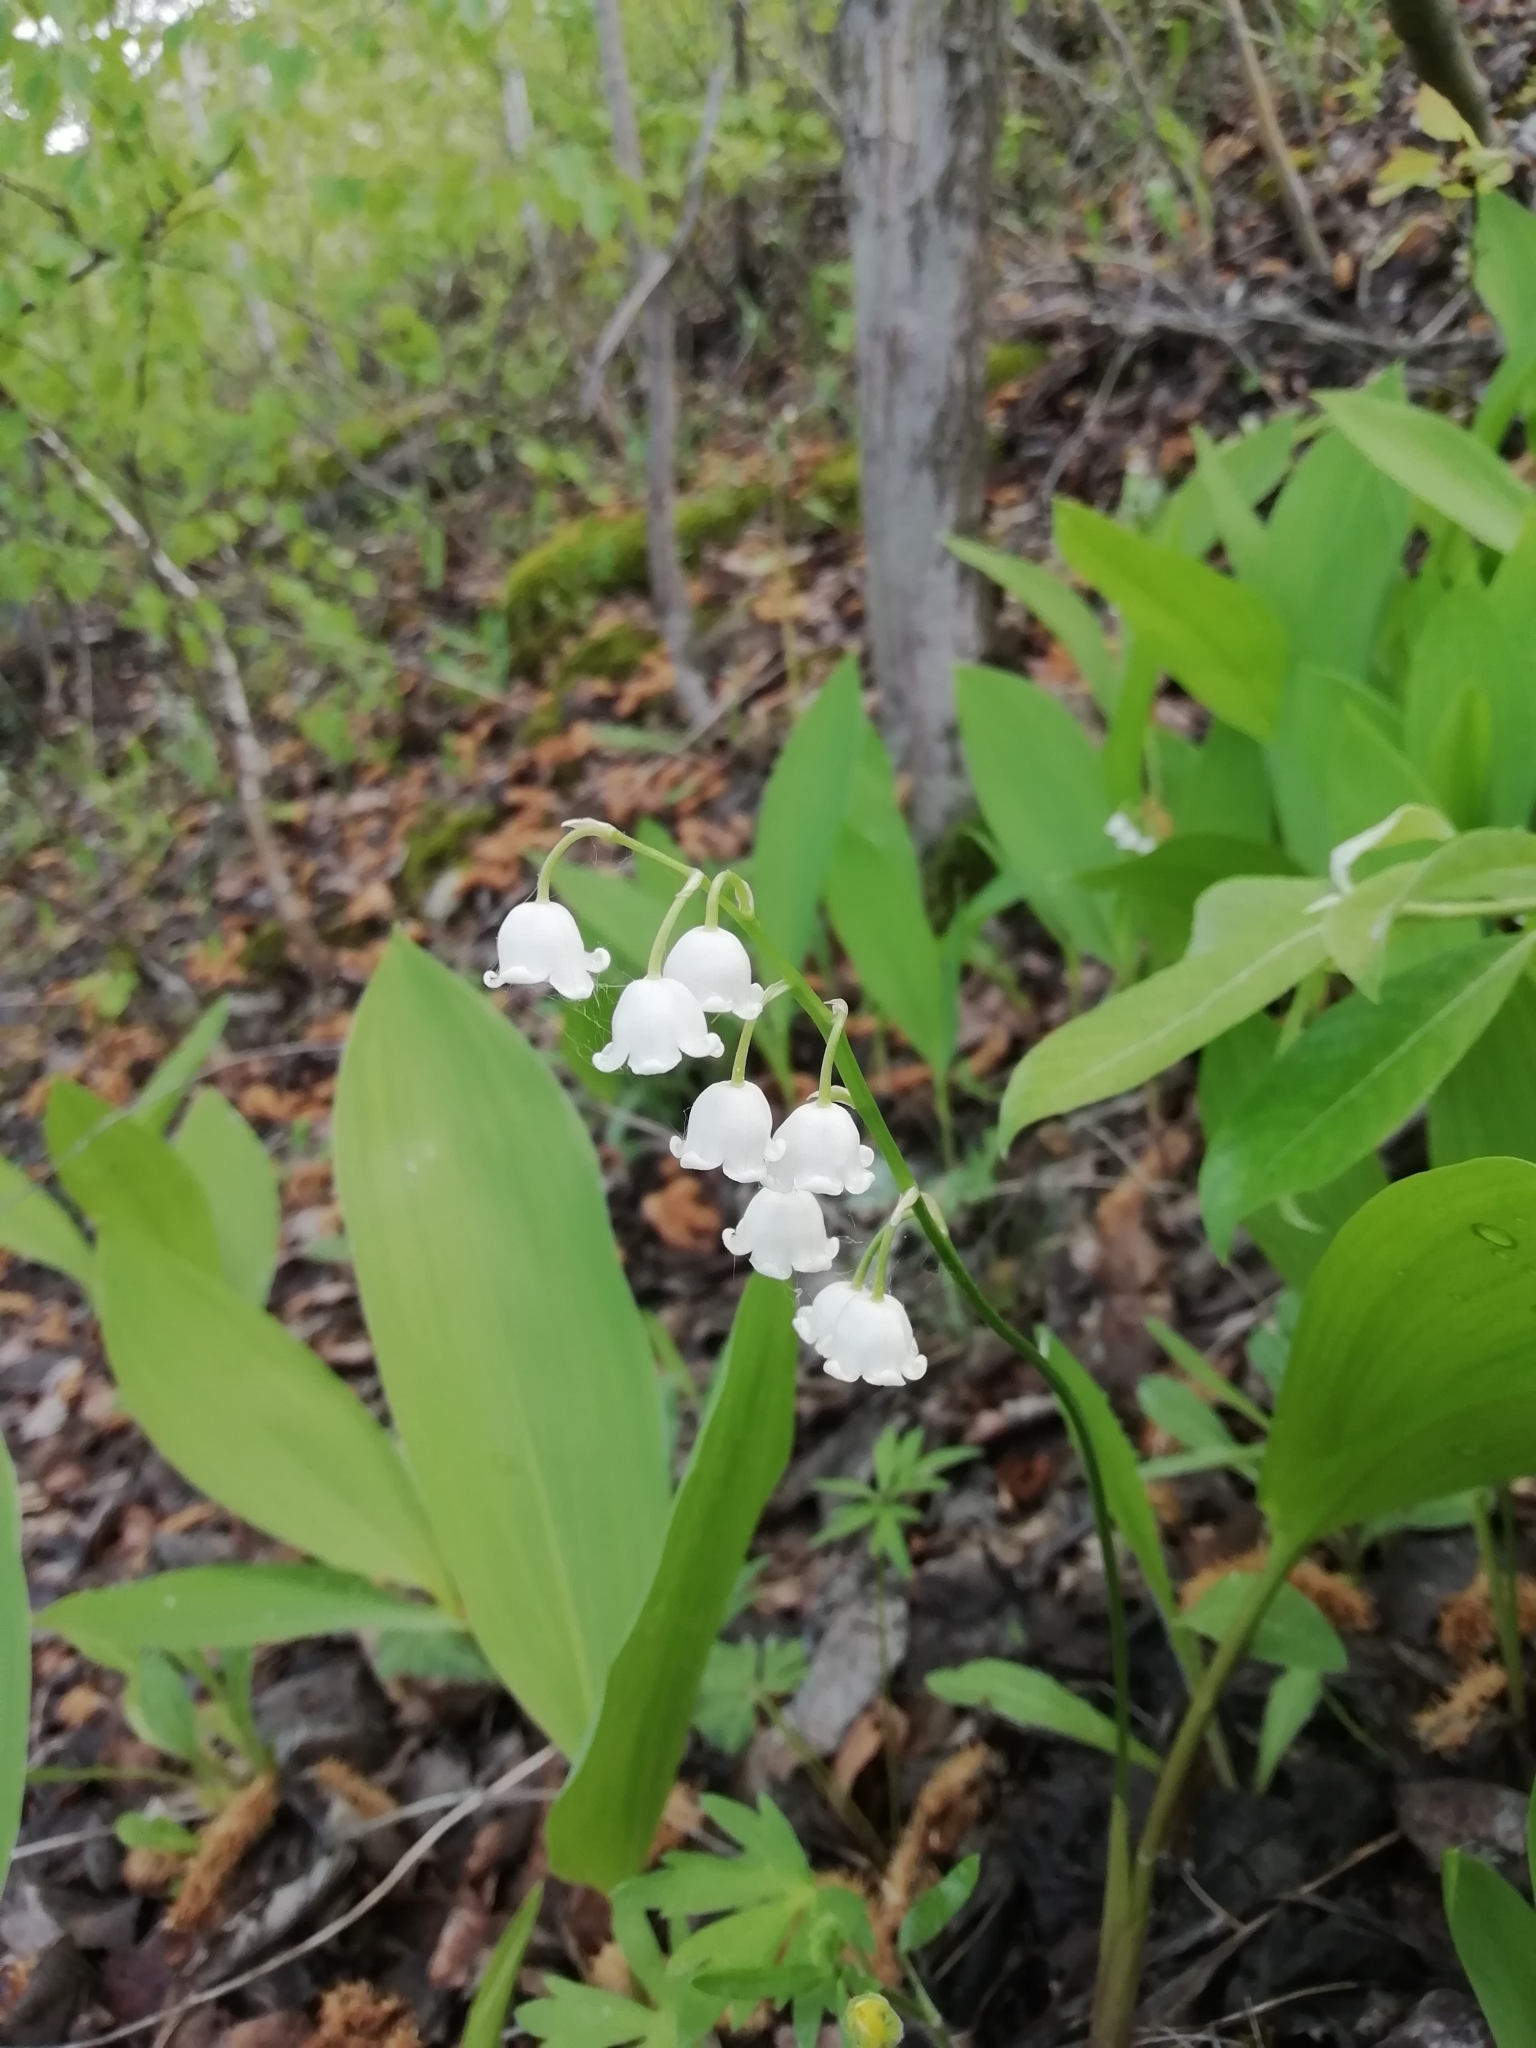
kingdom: Plantae
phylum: Tracheophyta
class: Liliopsida
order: Asparagales
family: Asparagaceae
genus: Convallaria
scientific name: Convallaria majalis
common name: Lily-of-the-valley
